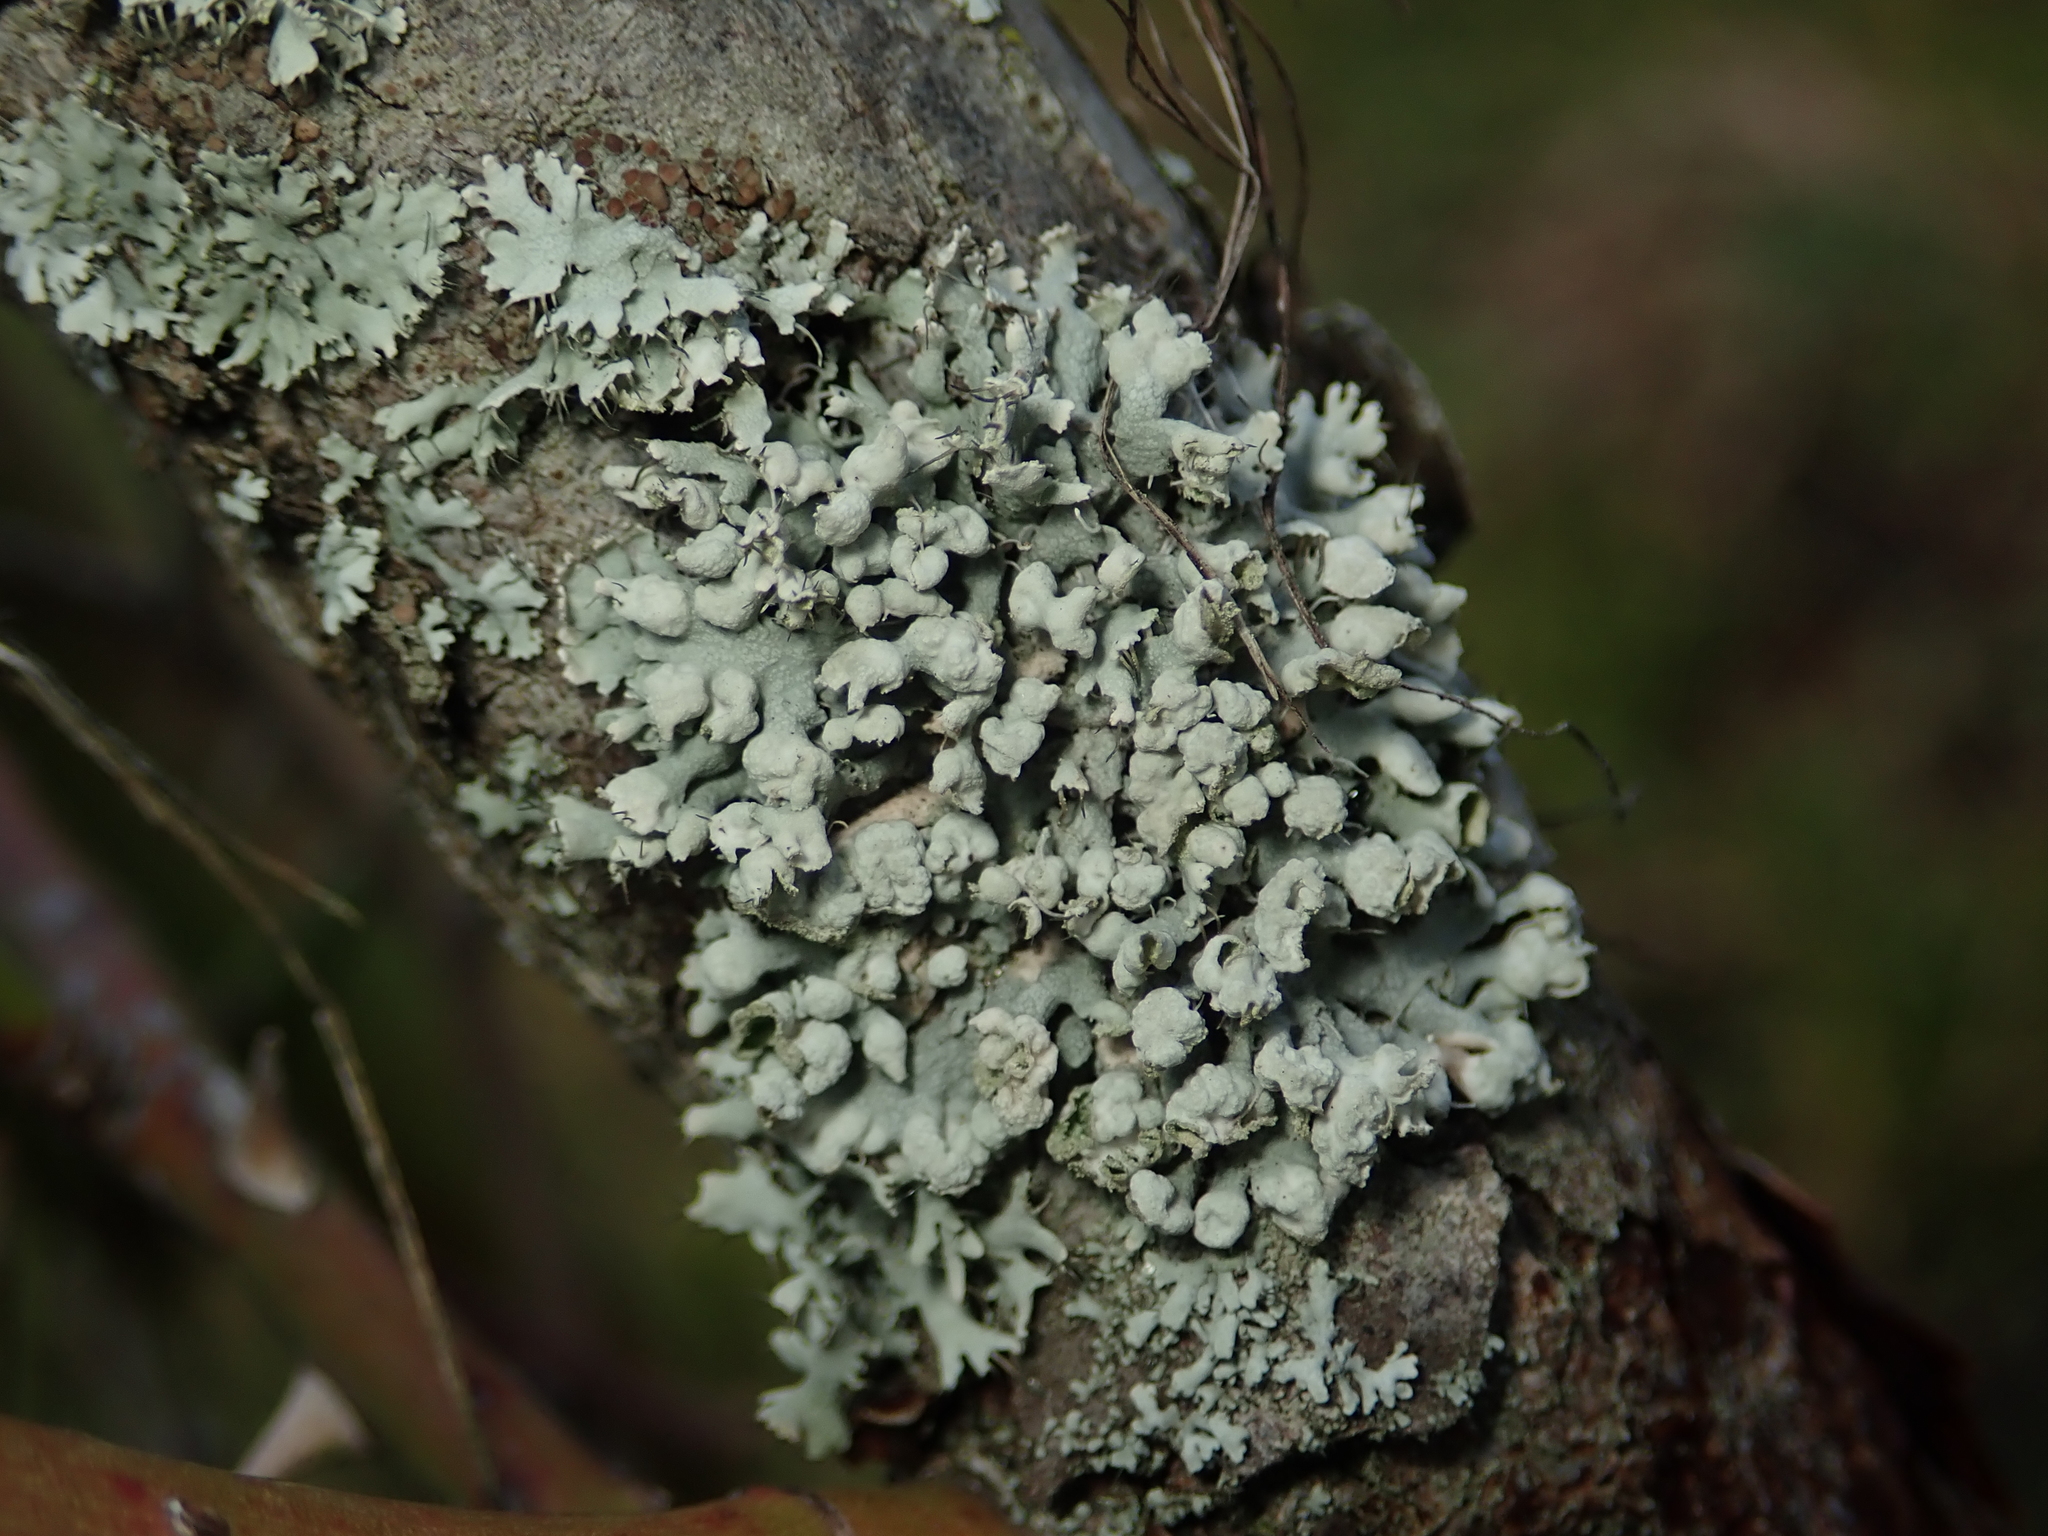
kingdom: Fungi
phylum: Ascomycota
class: Lecanoromycetes
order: Caliciales
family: Physciaceae
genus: Physcia
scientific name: Physcia adscendens
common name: Hooded rosette lichen
